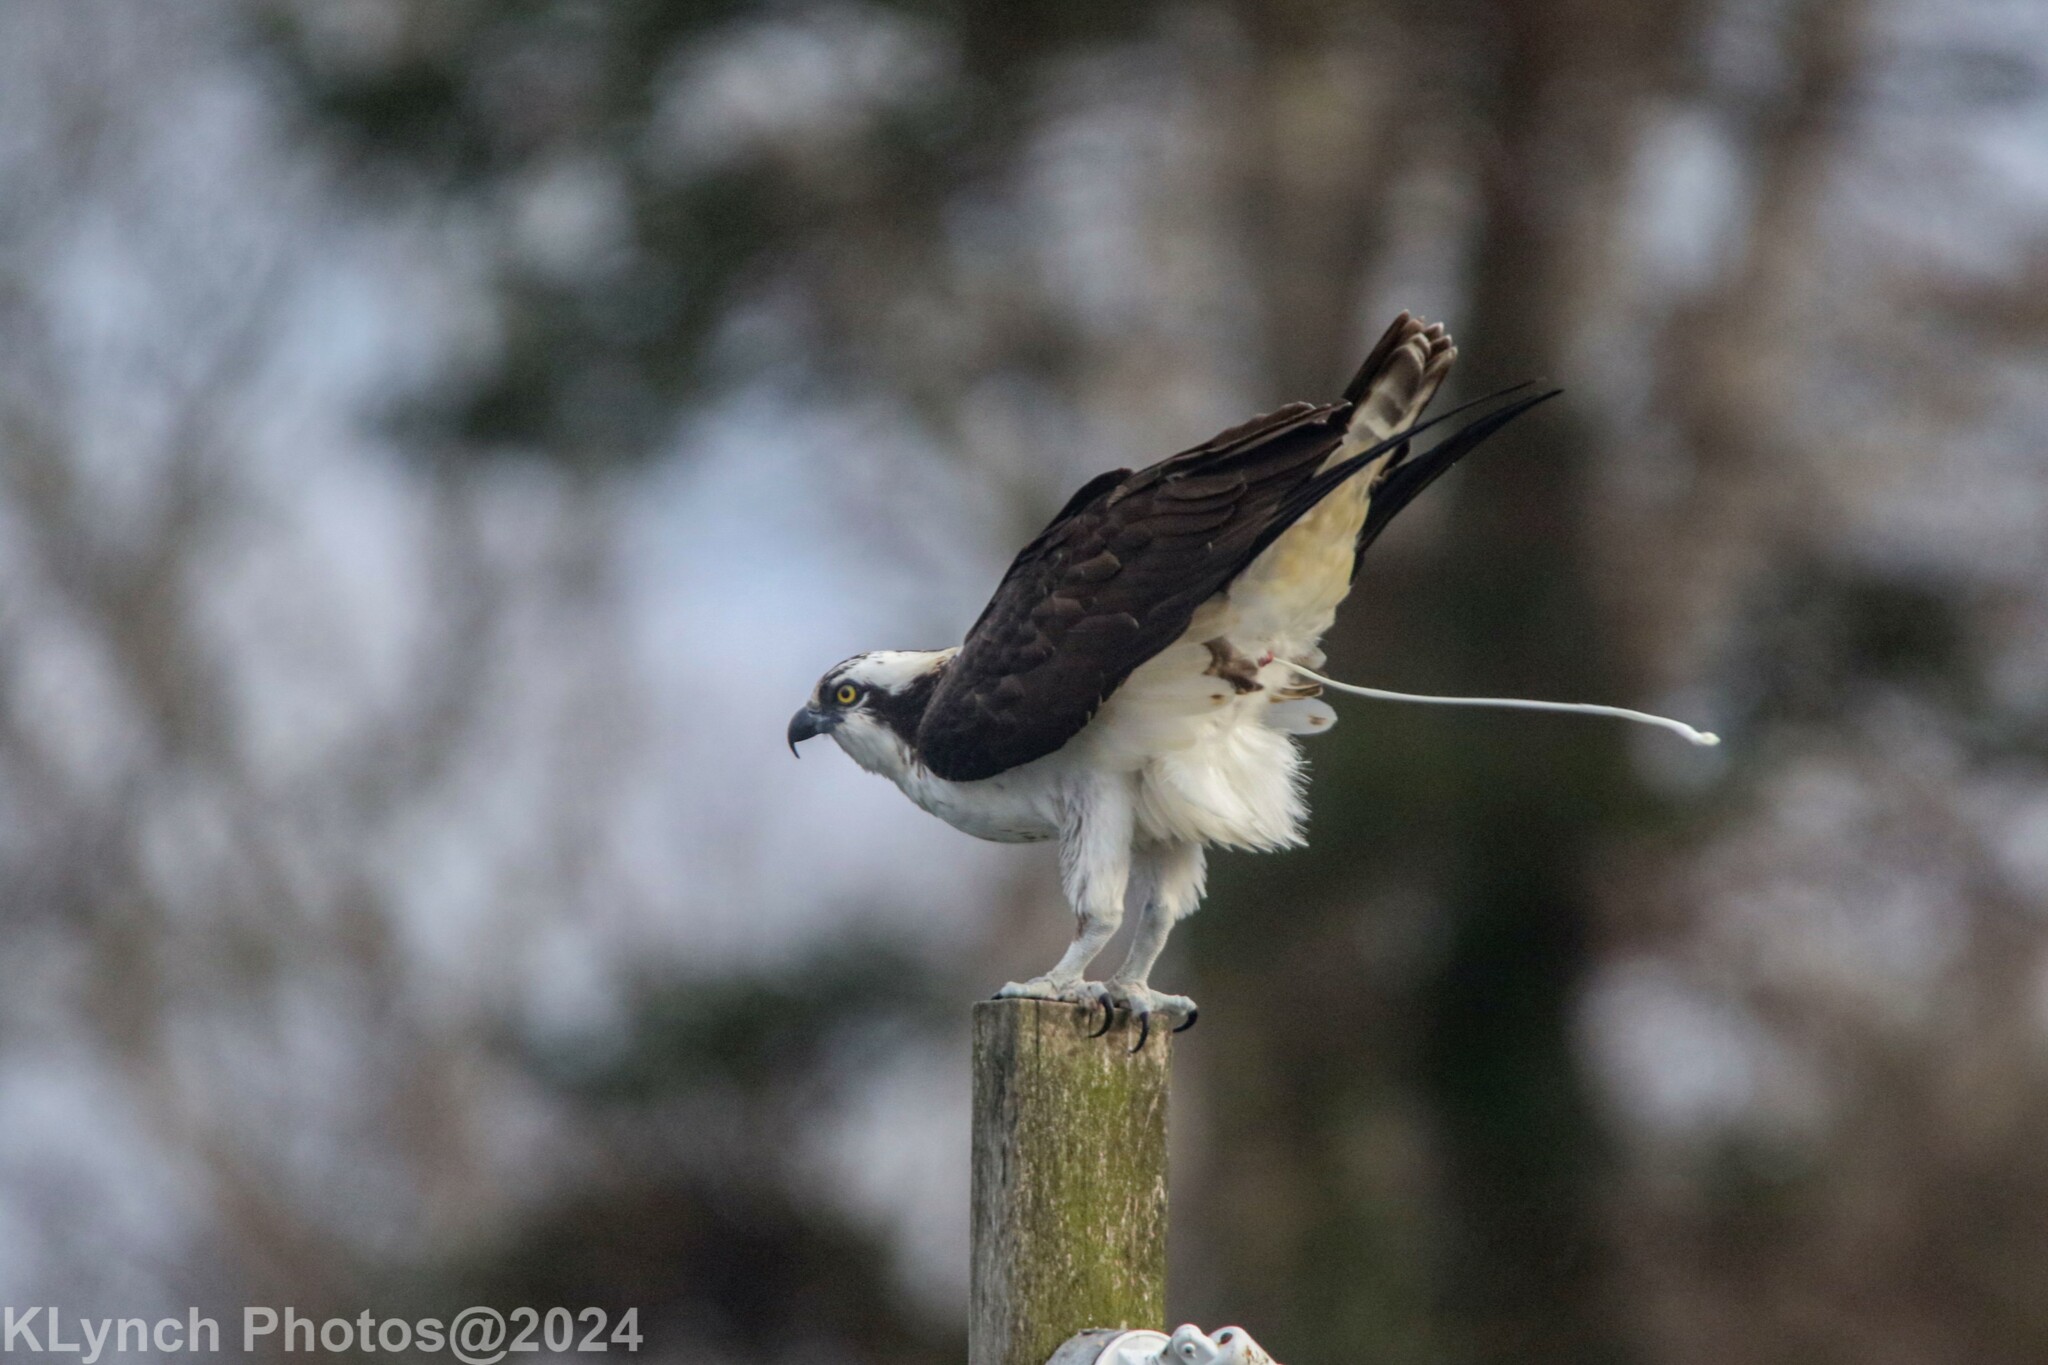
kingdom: Animalia
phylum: Chordata
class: Aves
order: Accipitriformes
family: Pandionidae
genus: Pandion
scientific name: Pandion haliaetus
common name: Osprey
